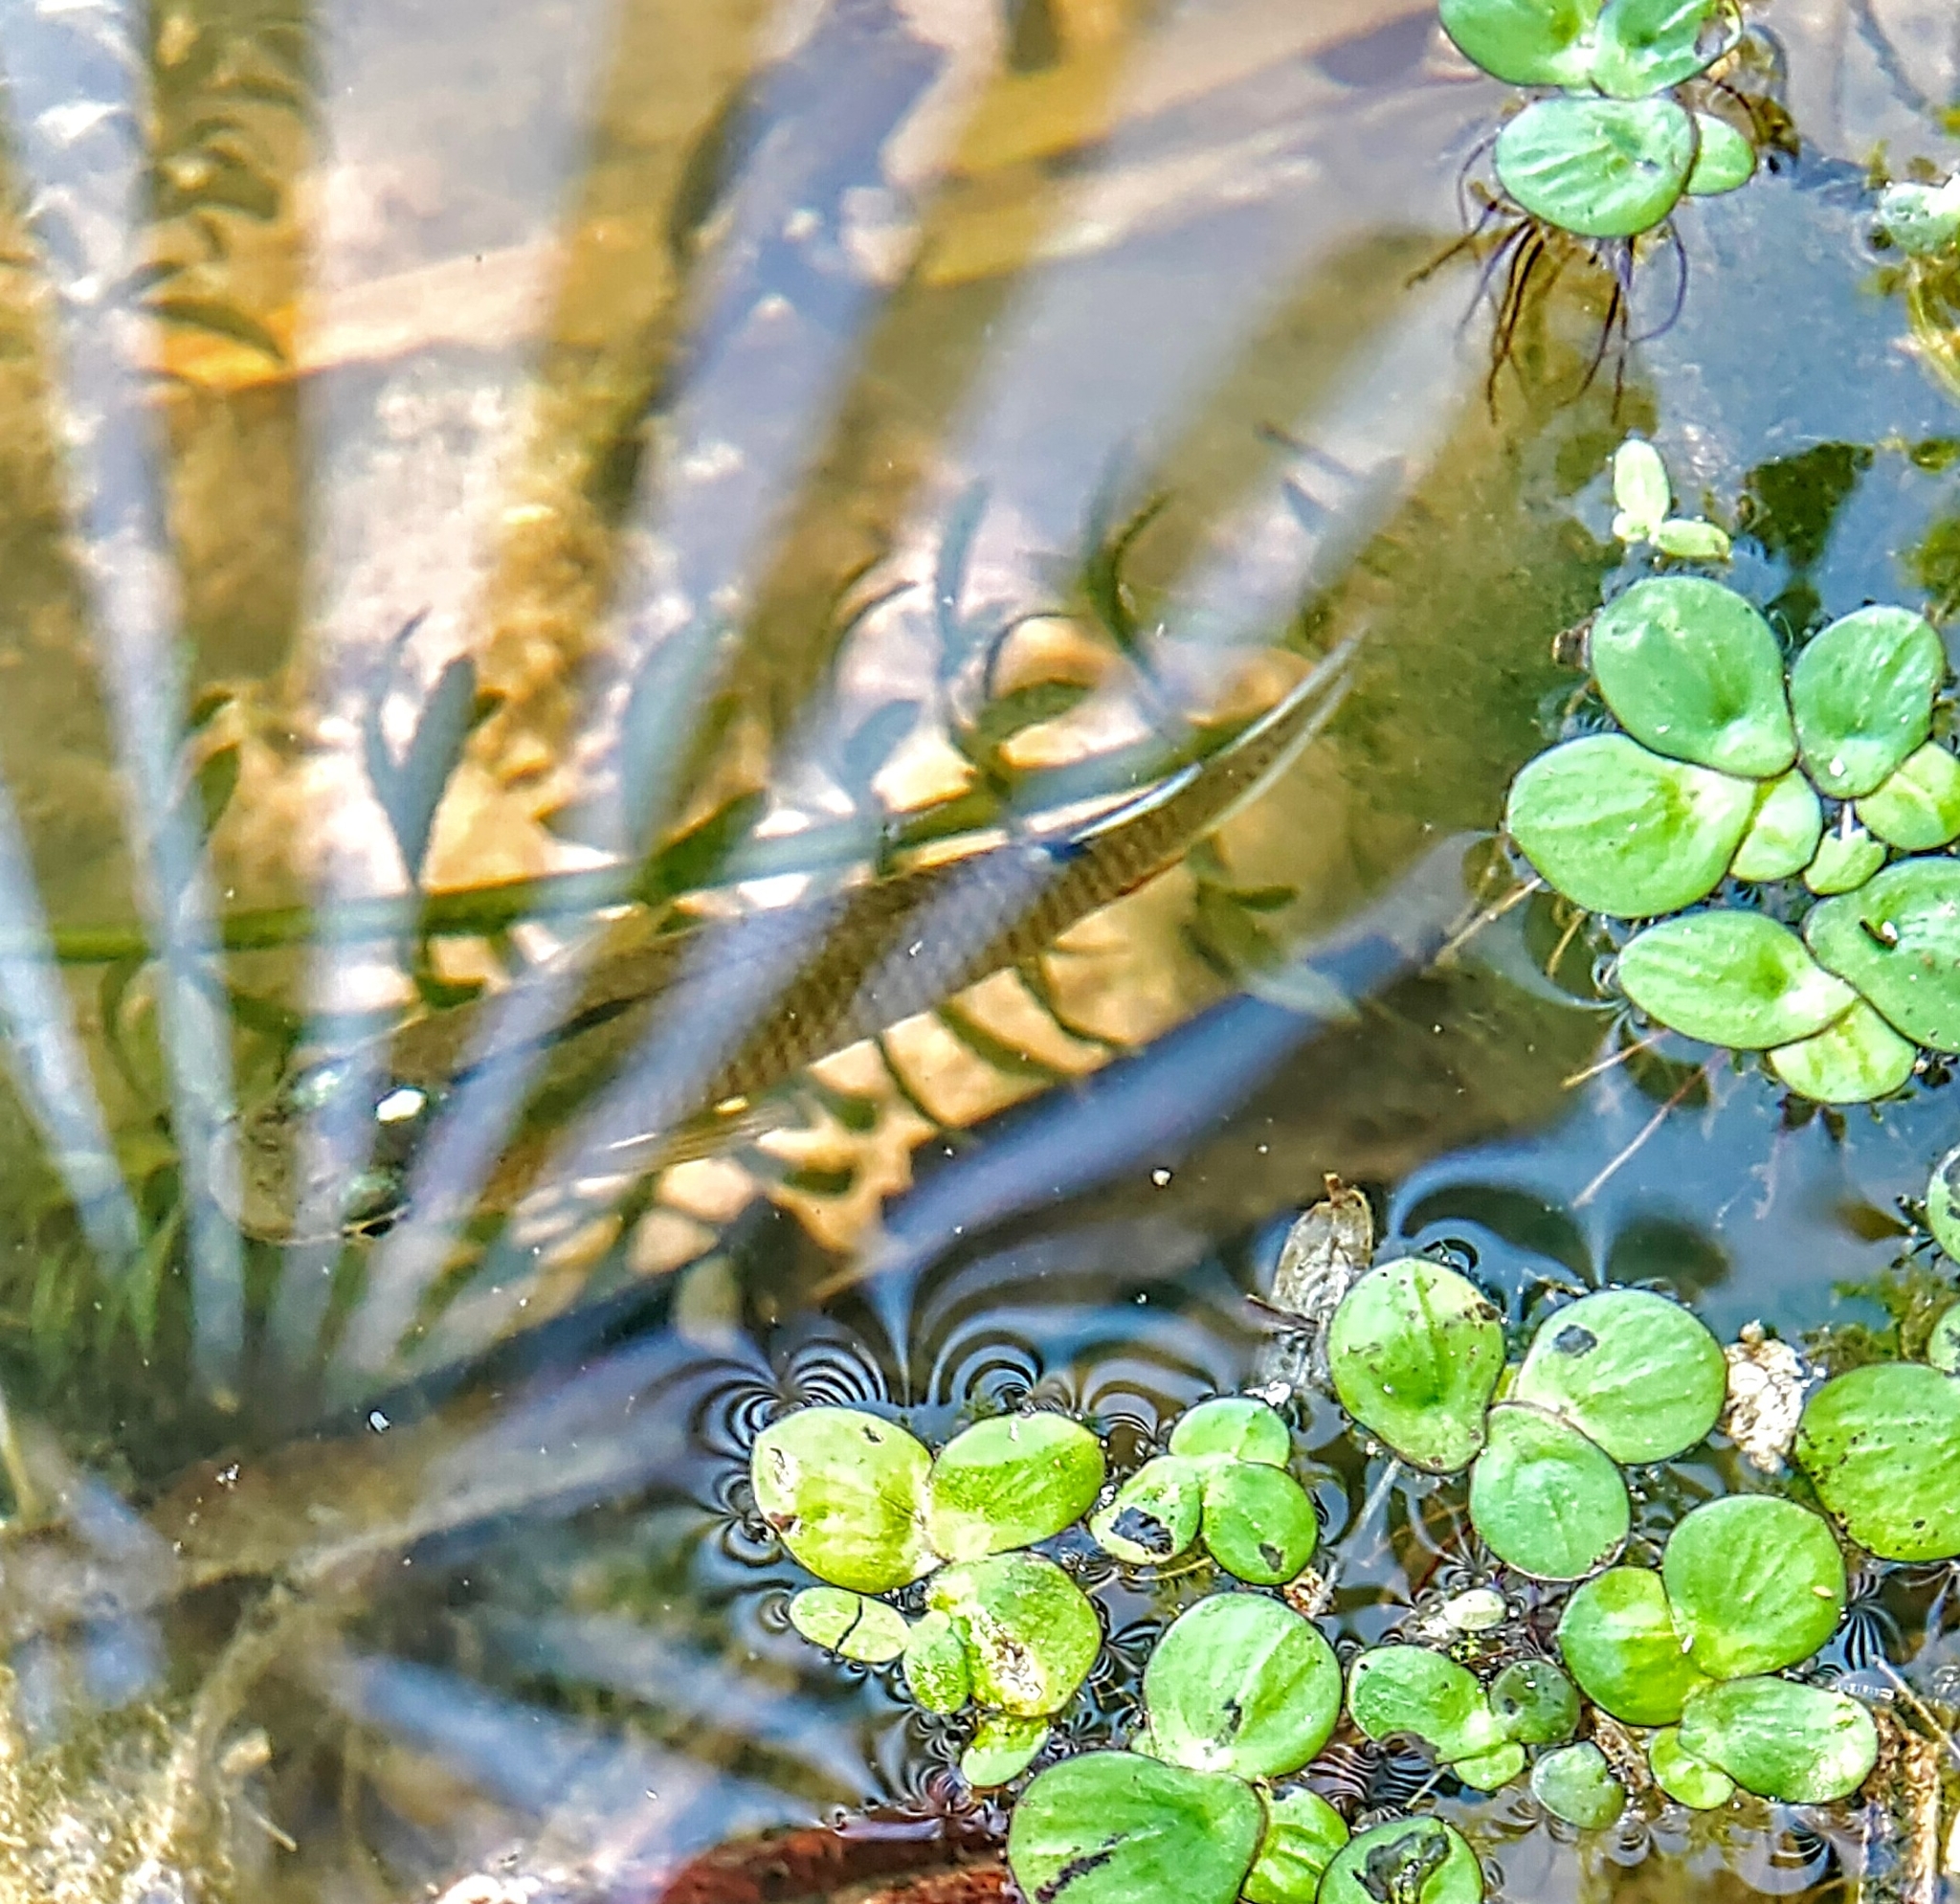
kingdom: Plantae
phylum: Tracheophyta
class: Liliopsida
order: Alismatales
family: Araceae
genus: Spirodela
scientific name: Spirodela polyrhiza
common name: Great duckweed
